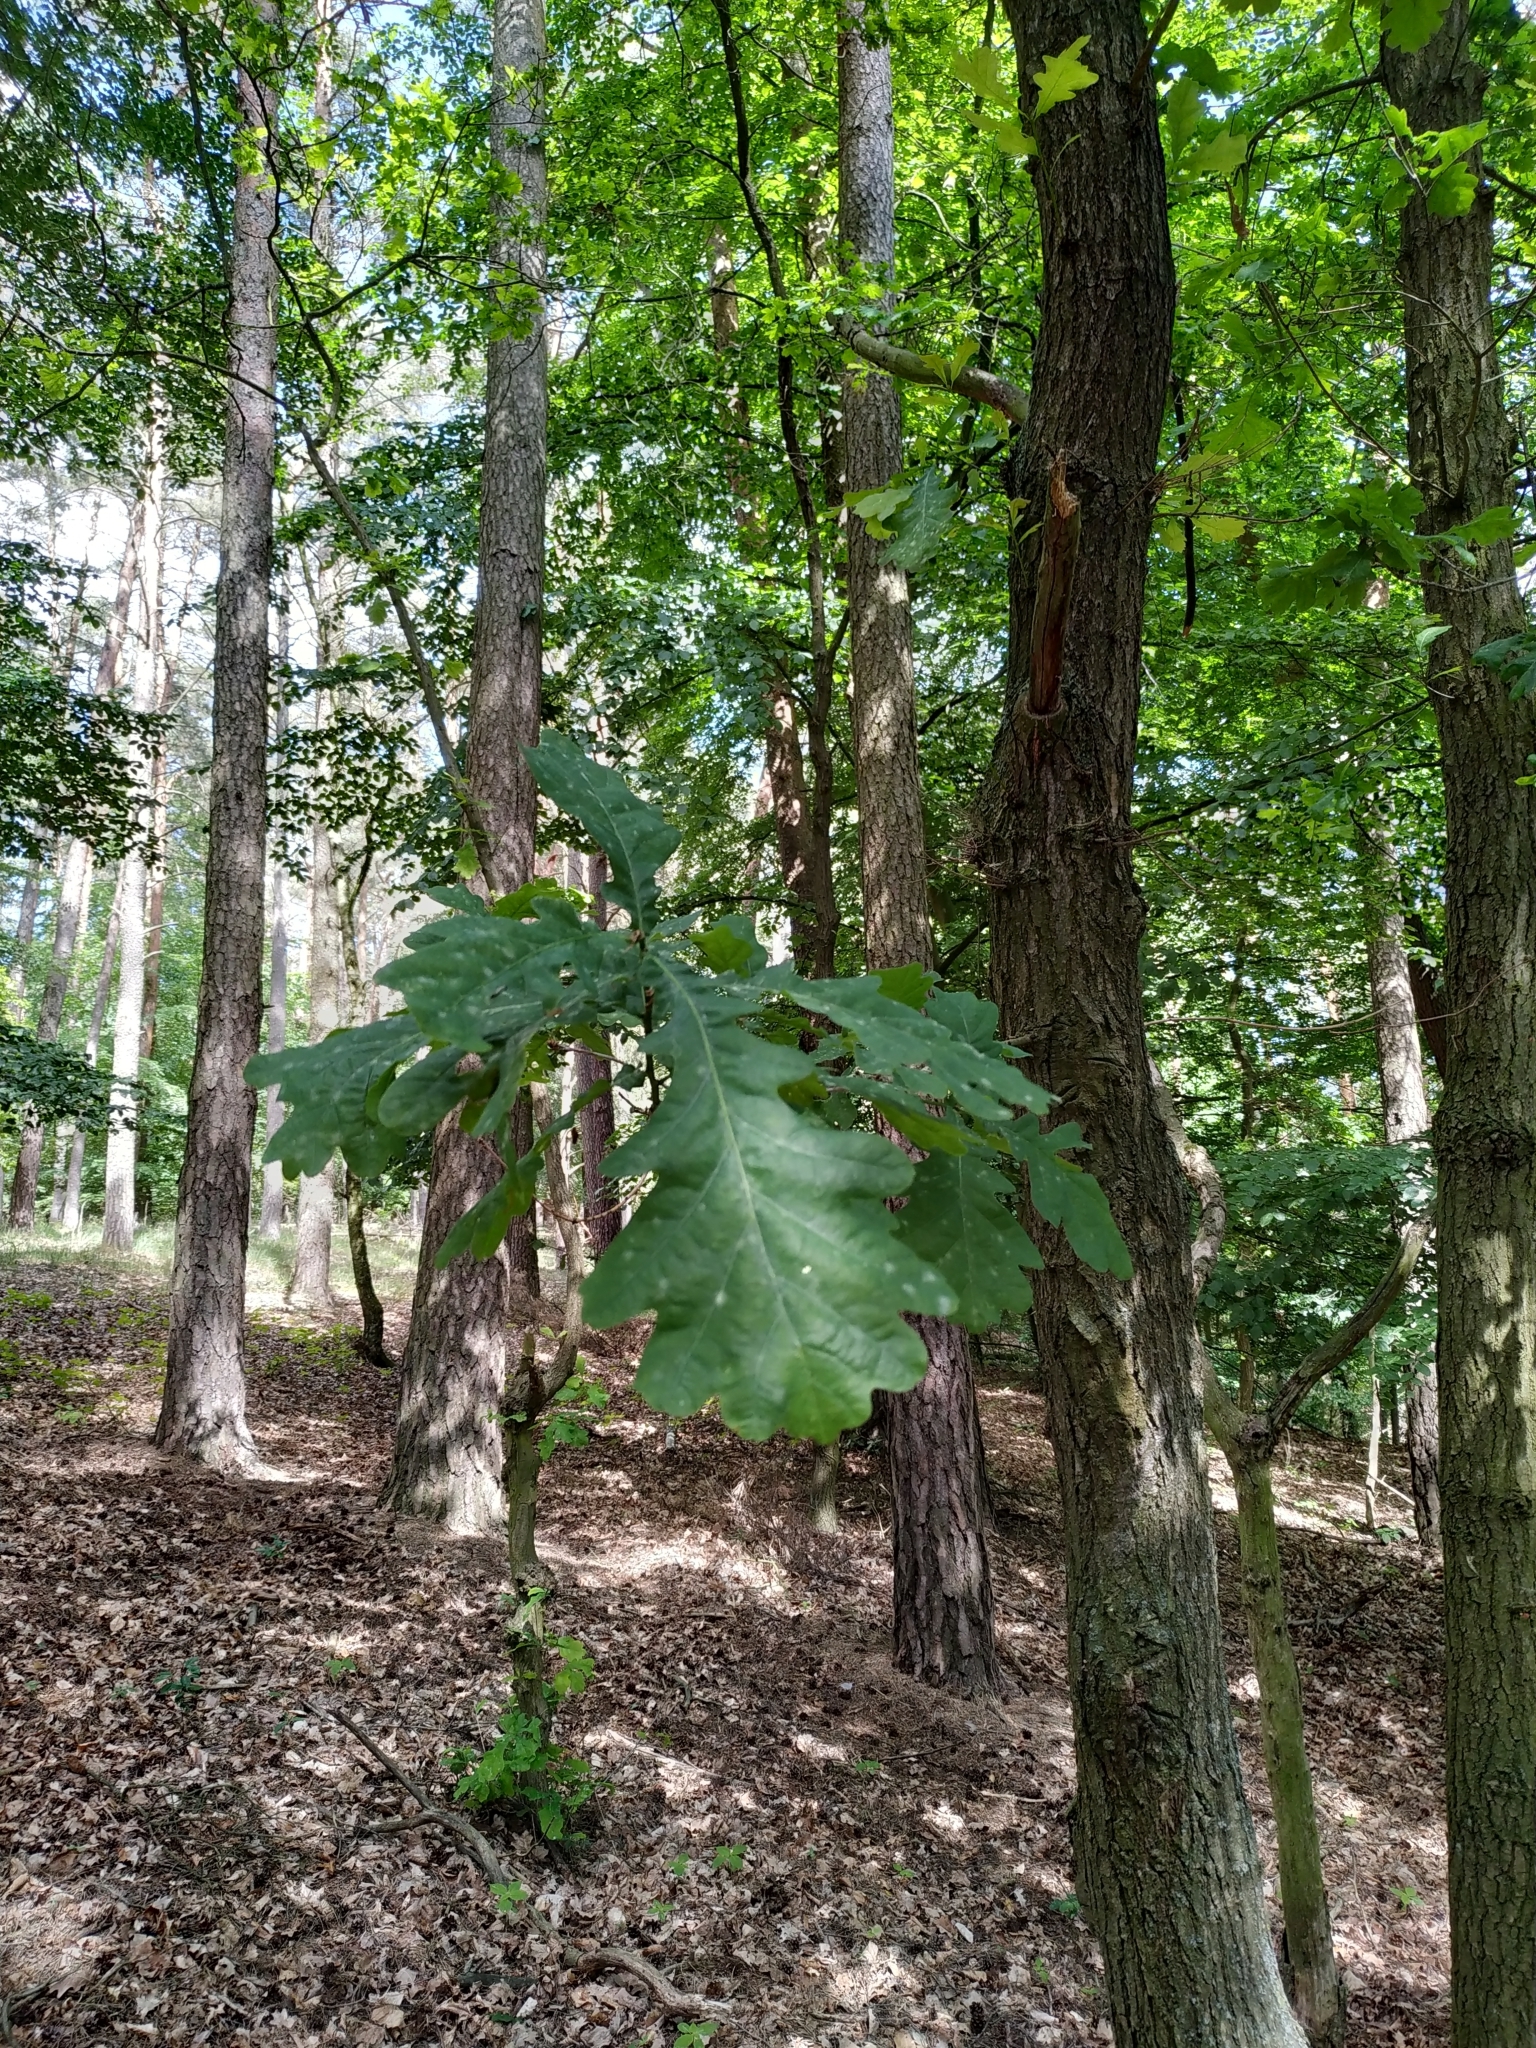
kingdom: Plantae
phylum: Tracheophyta
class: Magnoliopsida
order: Fagales
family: Fagaceae
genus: Quercus
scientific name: Quercus robur
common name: Pedunculate oak
